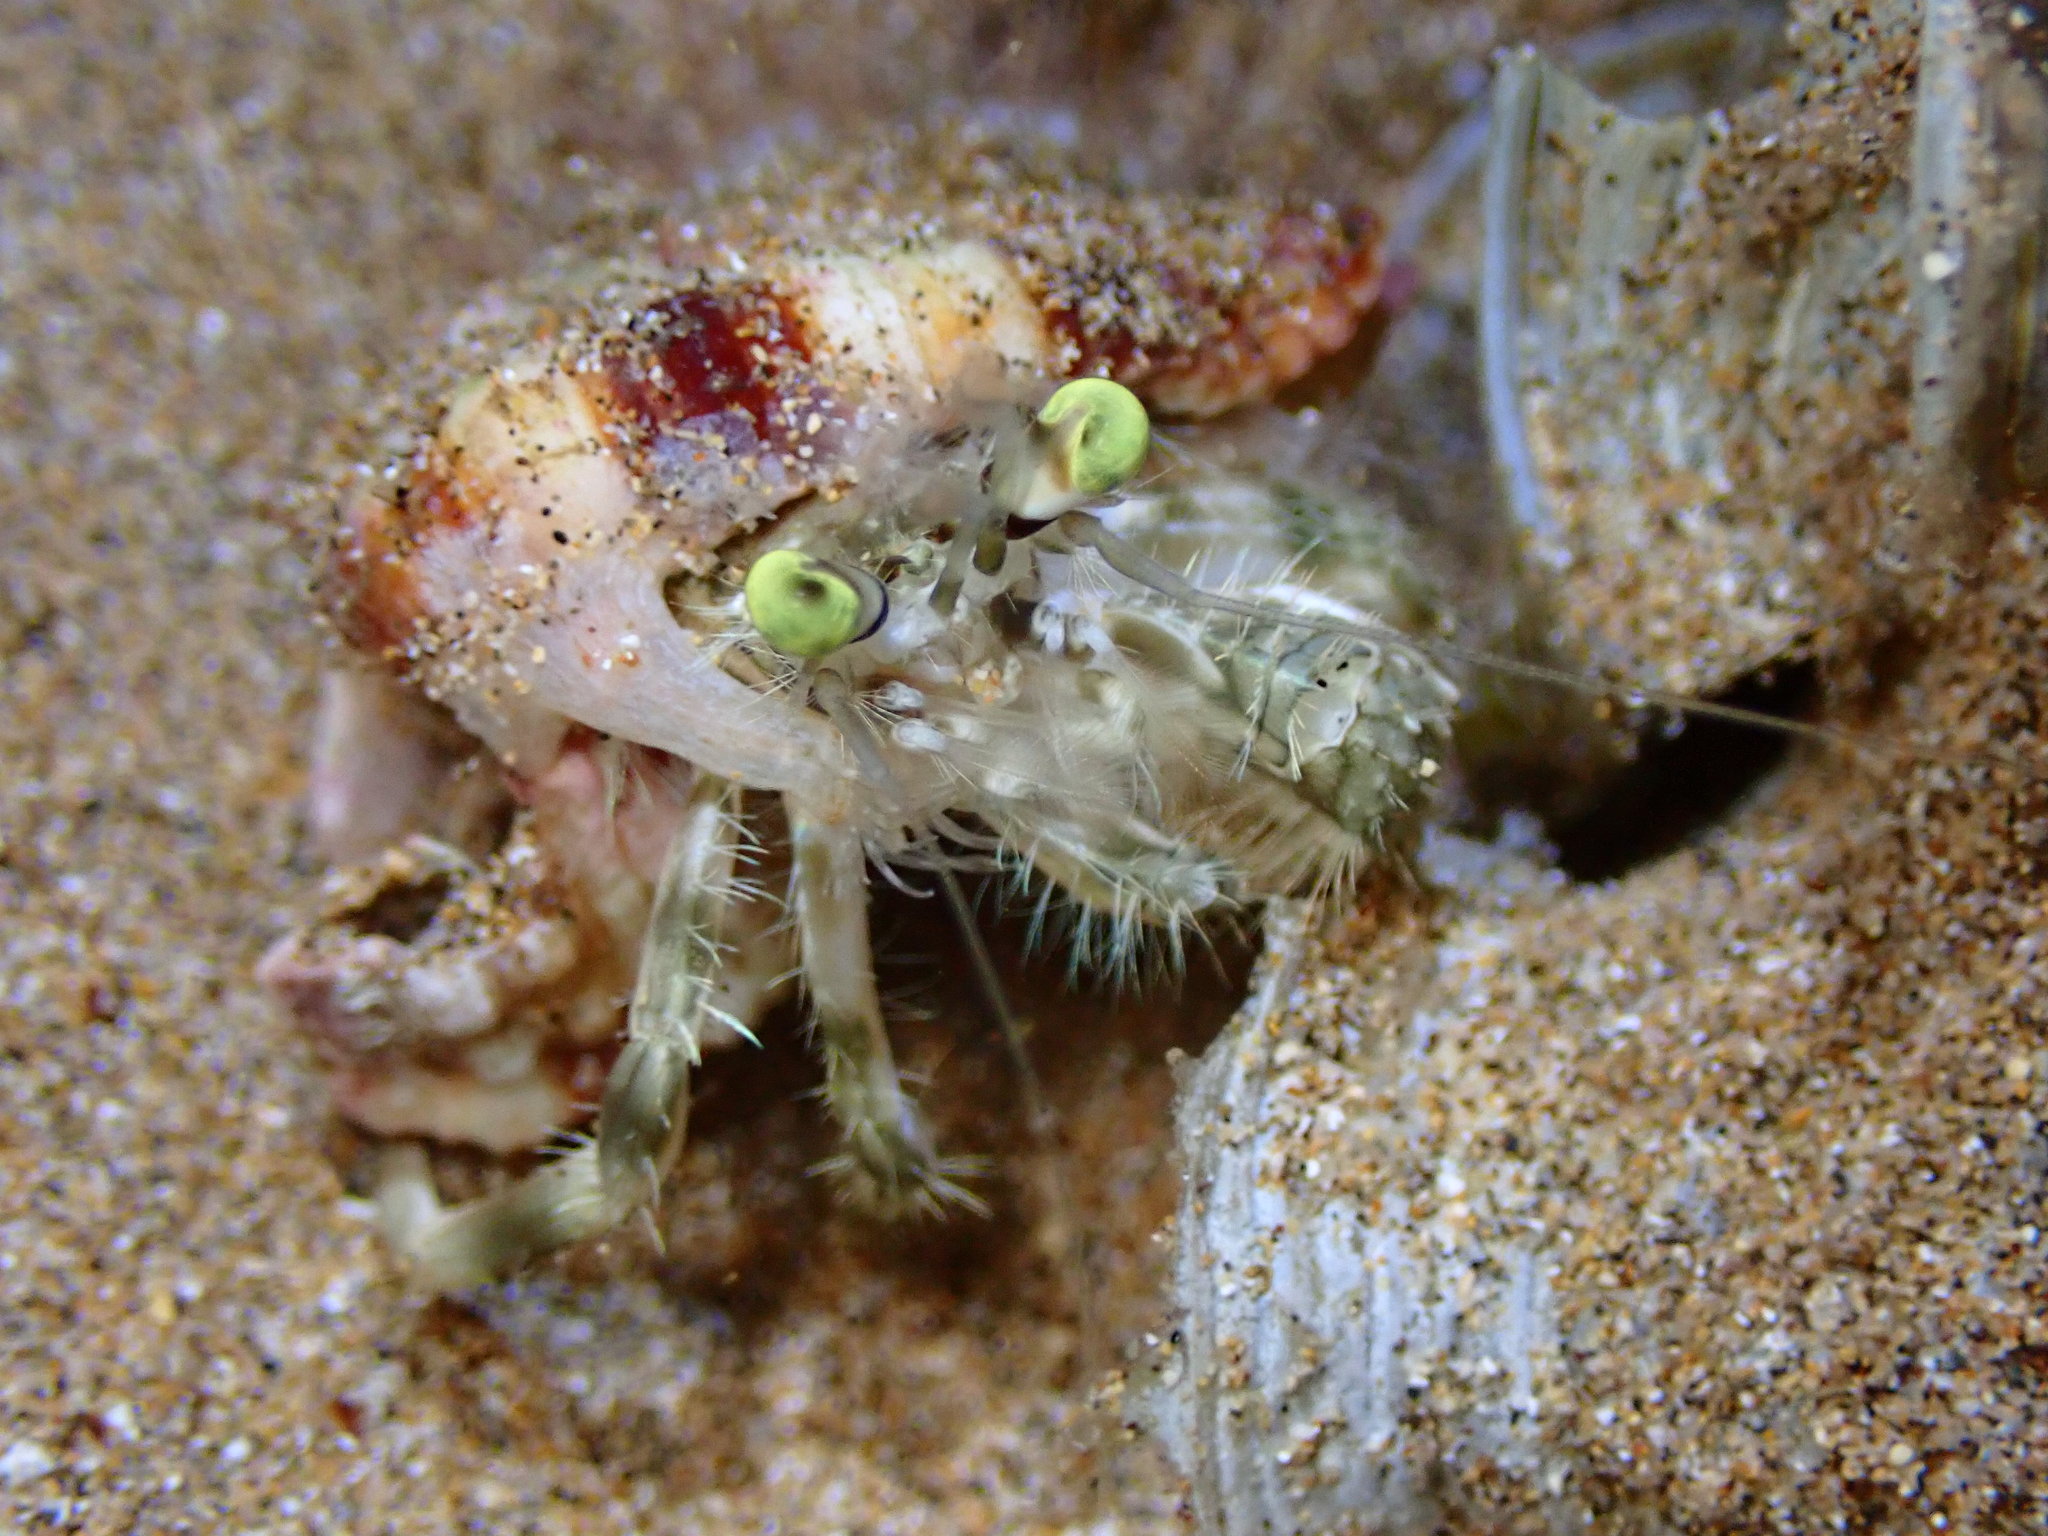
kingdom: Animalia
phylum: Arthropoda
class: Malacostraca
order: Decapoda
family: Diogenidae
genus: Dardanus
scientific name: Dardanus deformis
